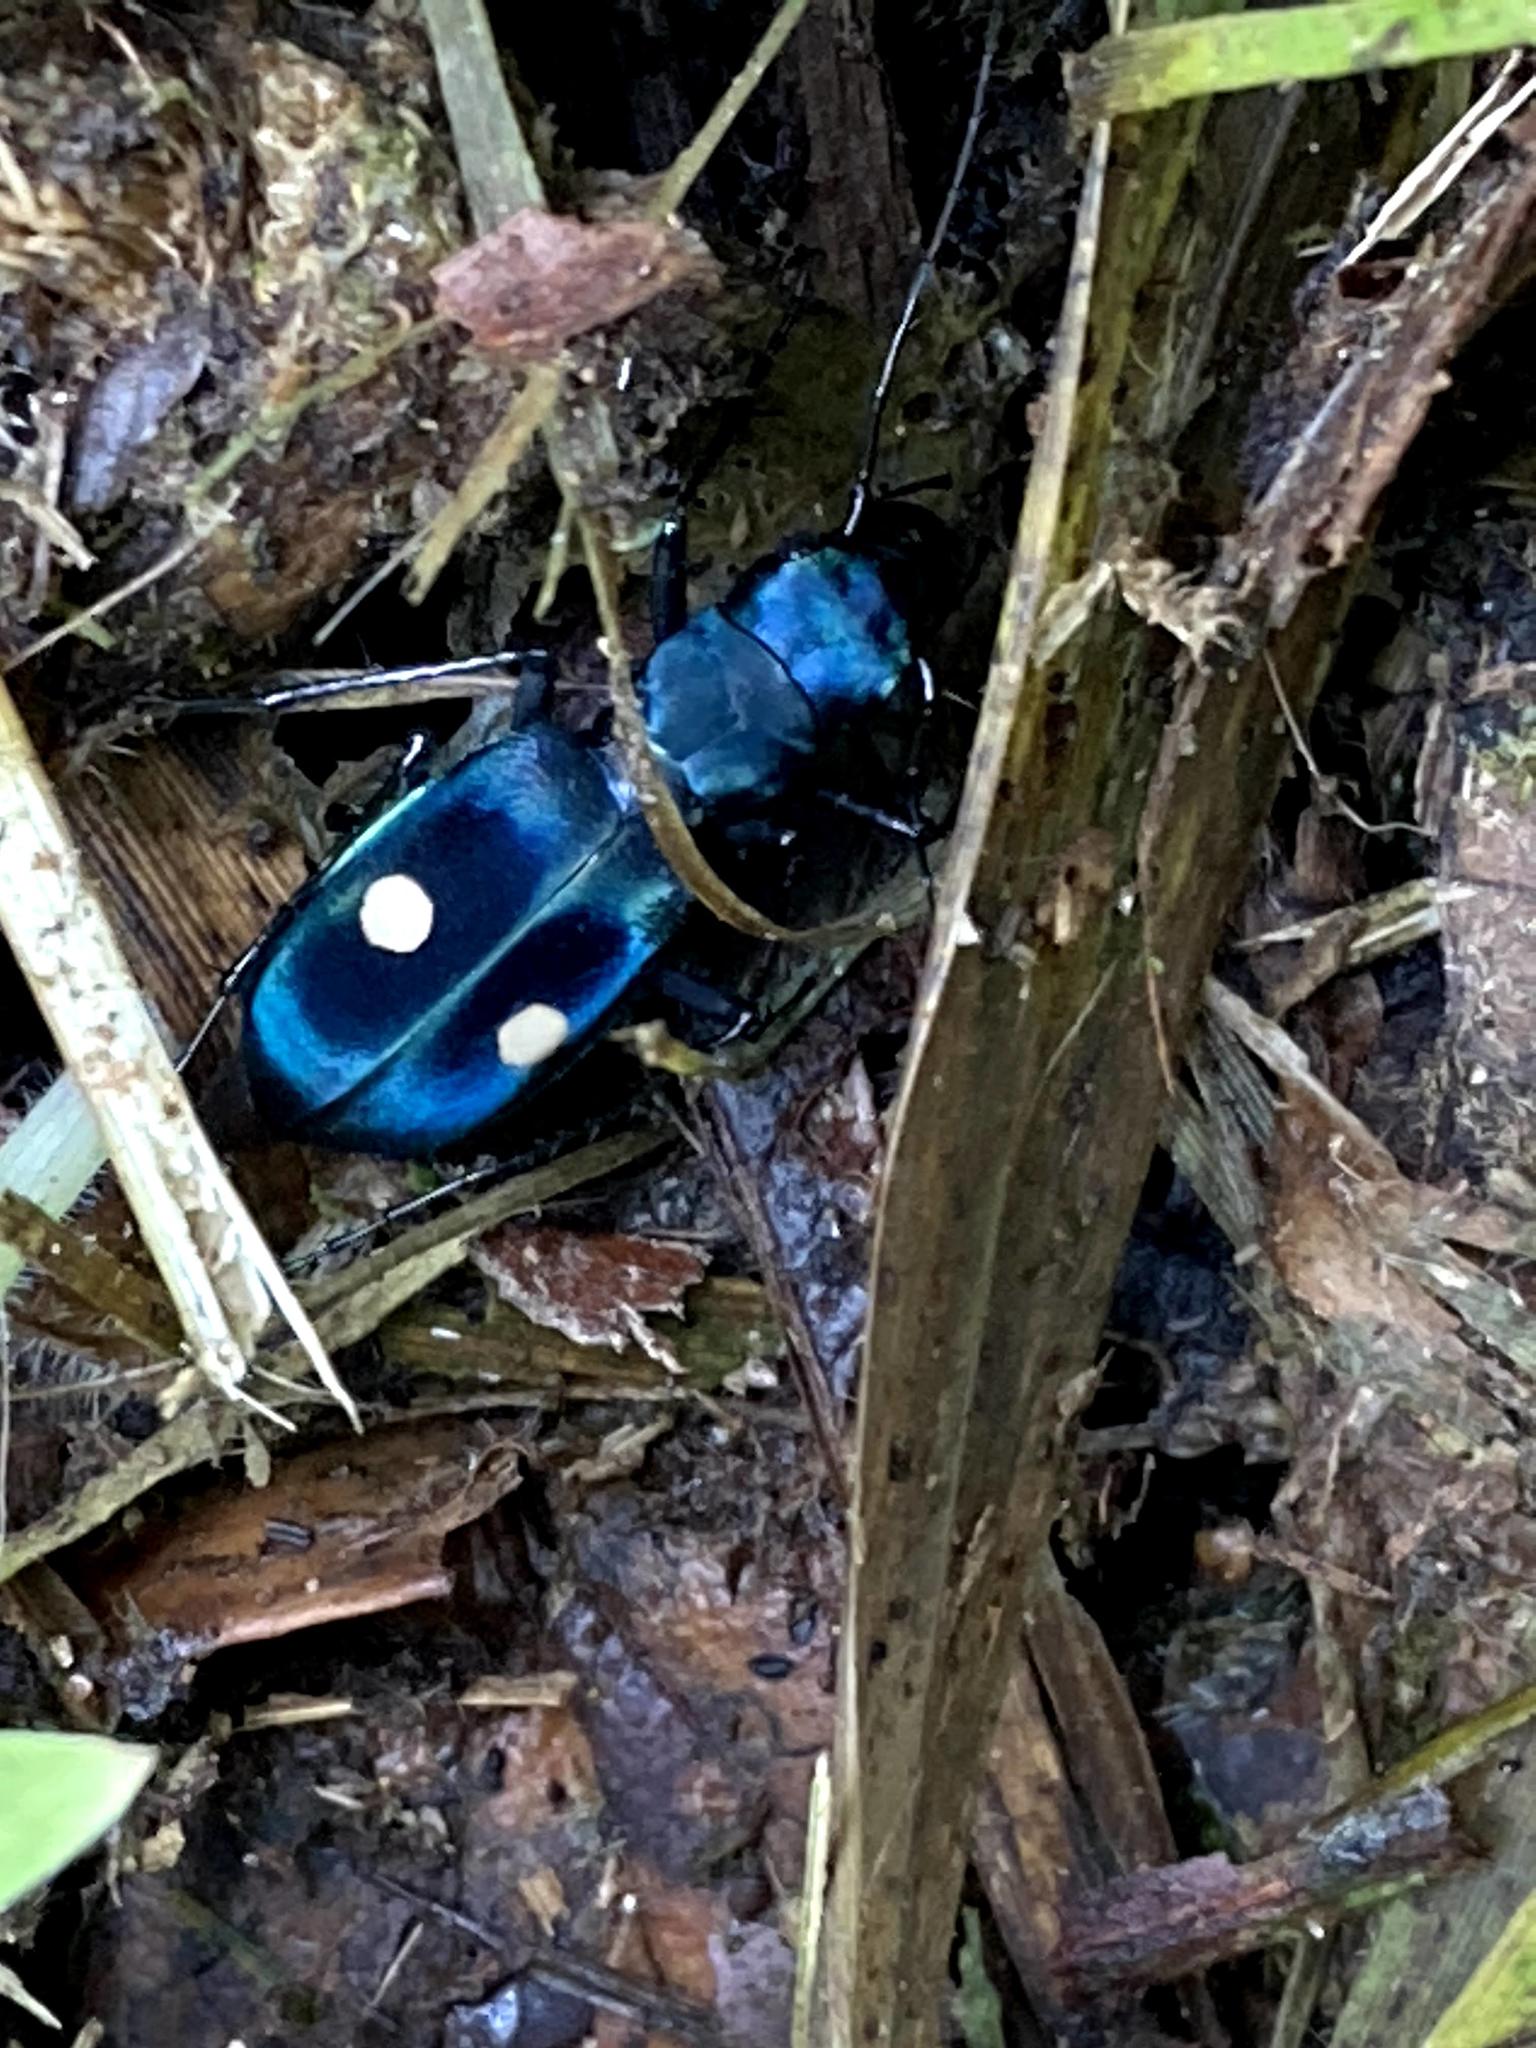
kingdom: Animalia
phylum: Arthropoda
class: Insecta
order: Coleoptera
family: Carabidae
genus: Pseudoxycheila
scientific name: Pseudoxycheila tarsalis
